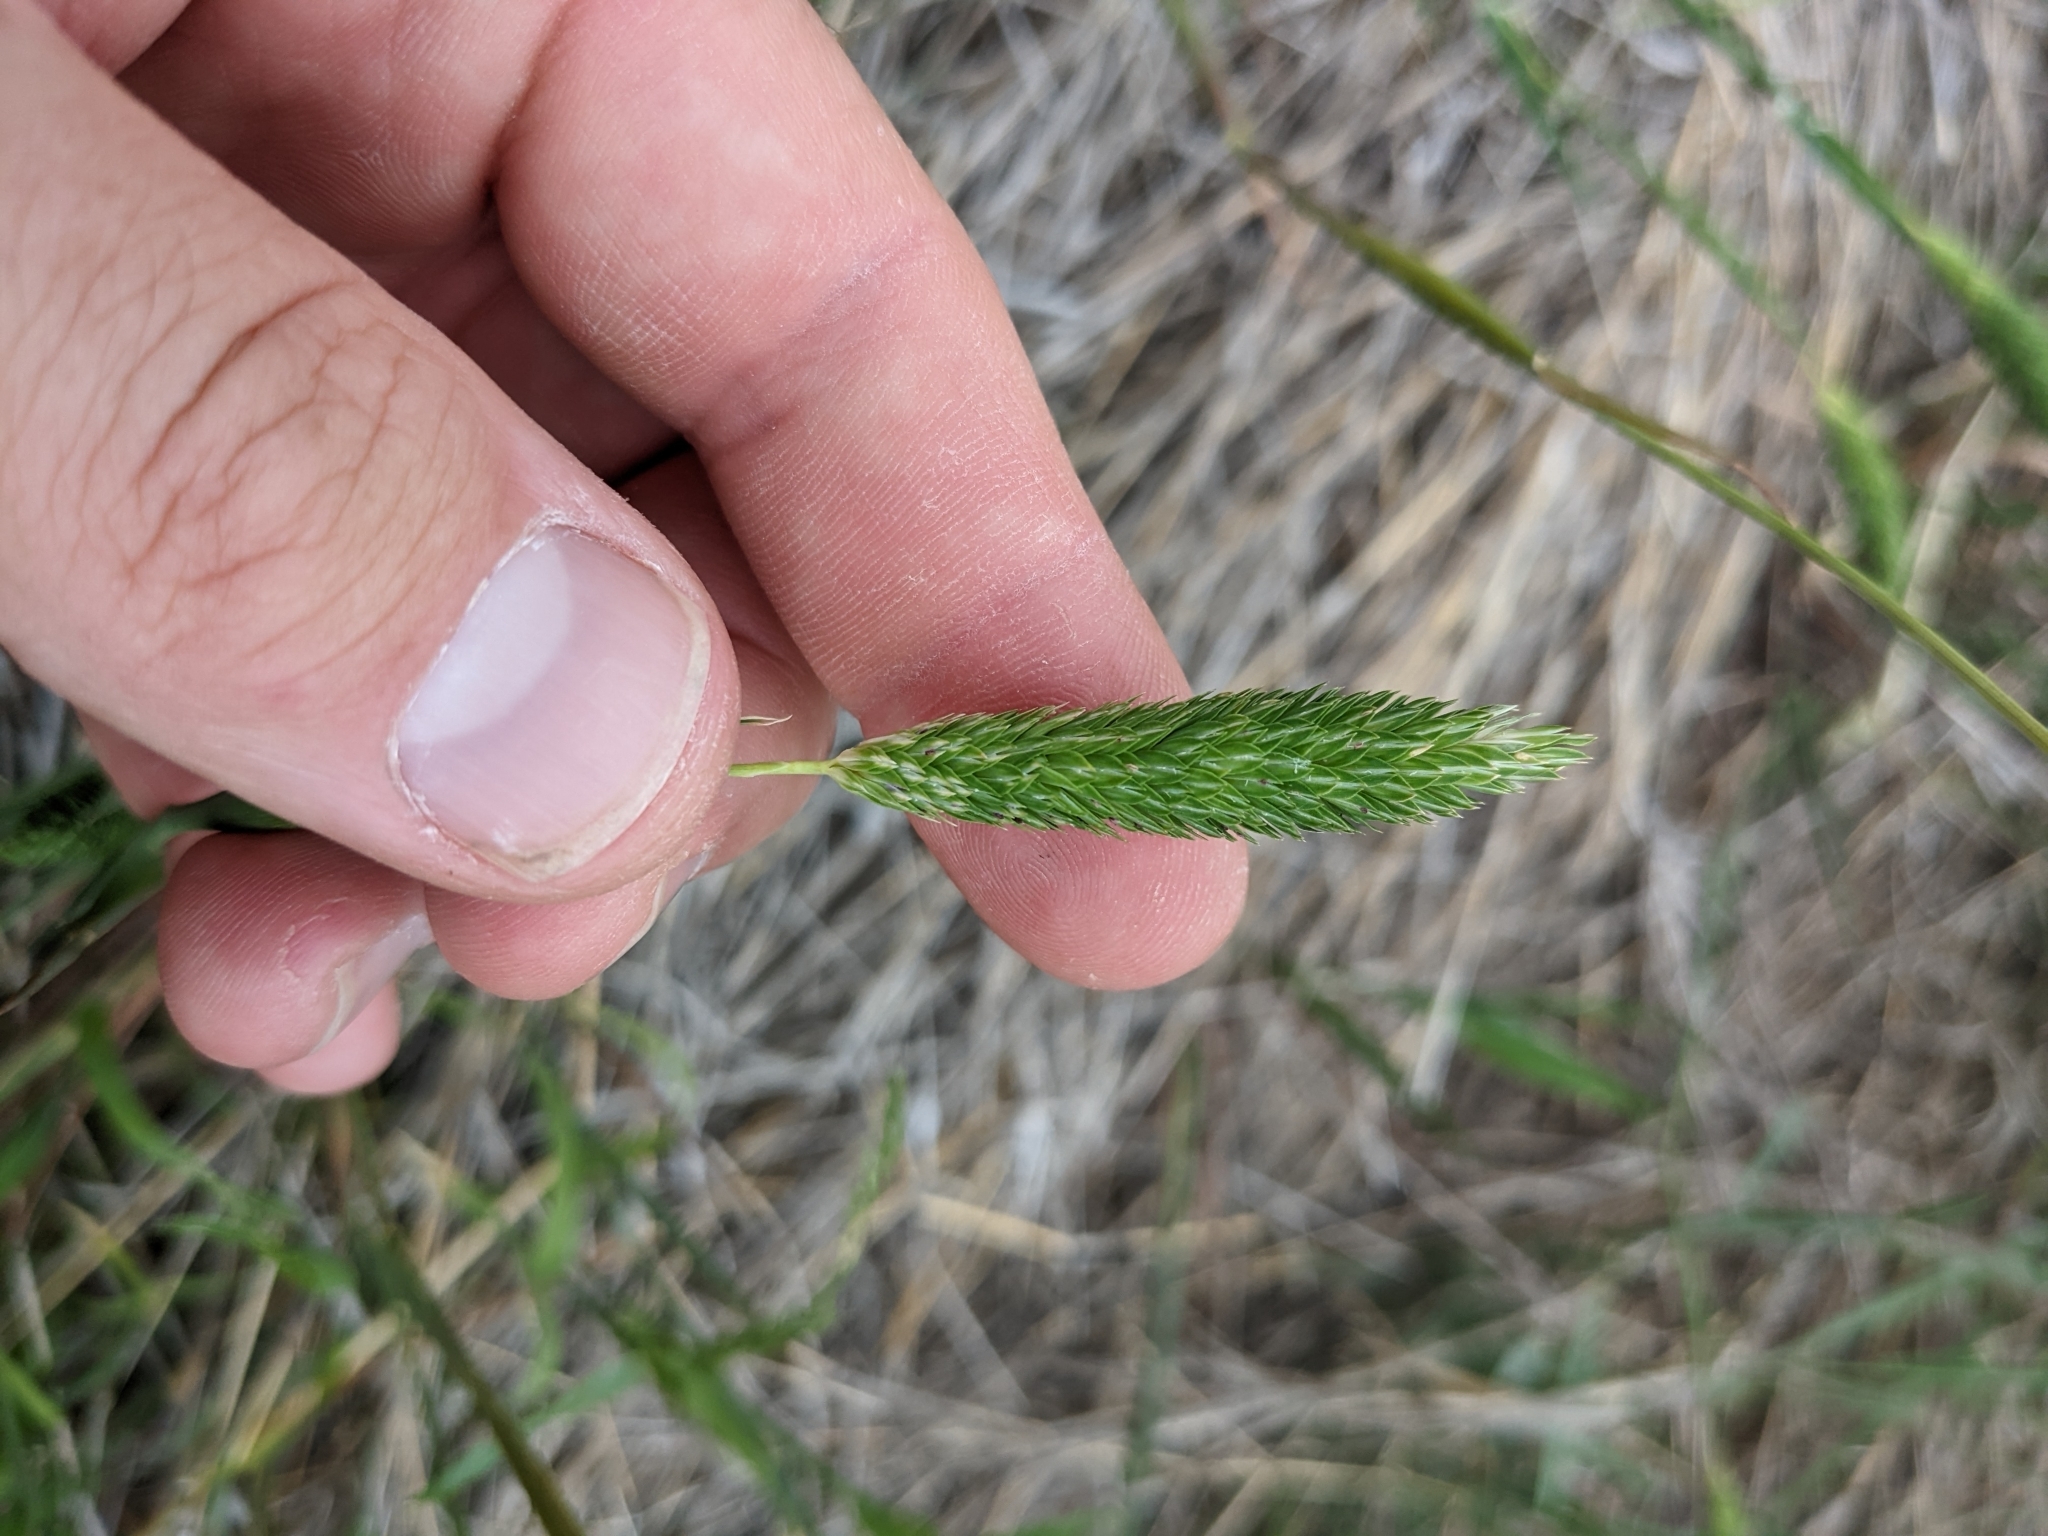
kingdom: Plantae
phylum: Tracheophyta
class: Liliopsida
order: Poales
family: Poaceae
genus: Phalaris
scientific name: Phalaris caroliniana
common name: May grass
